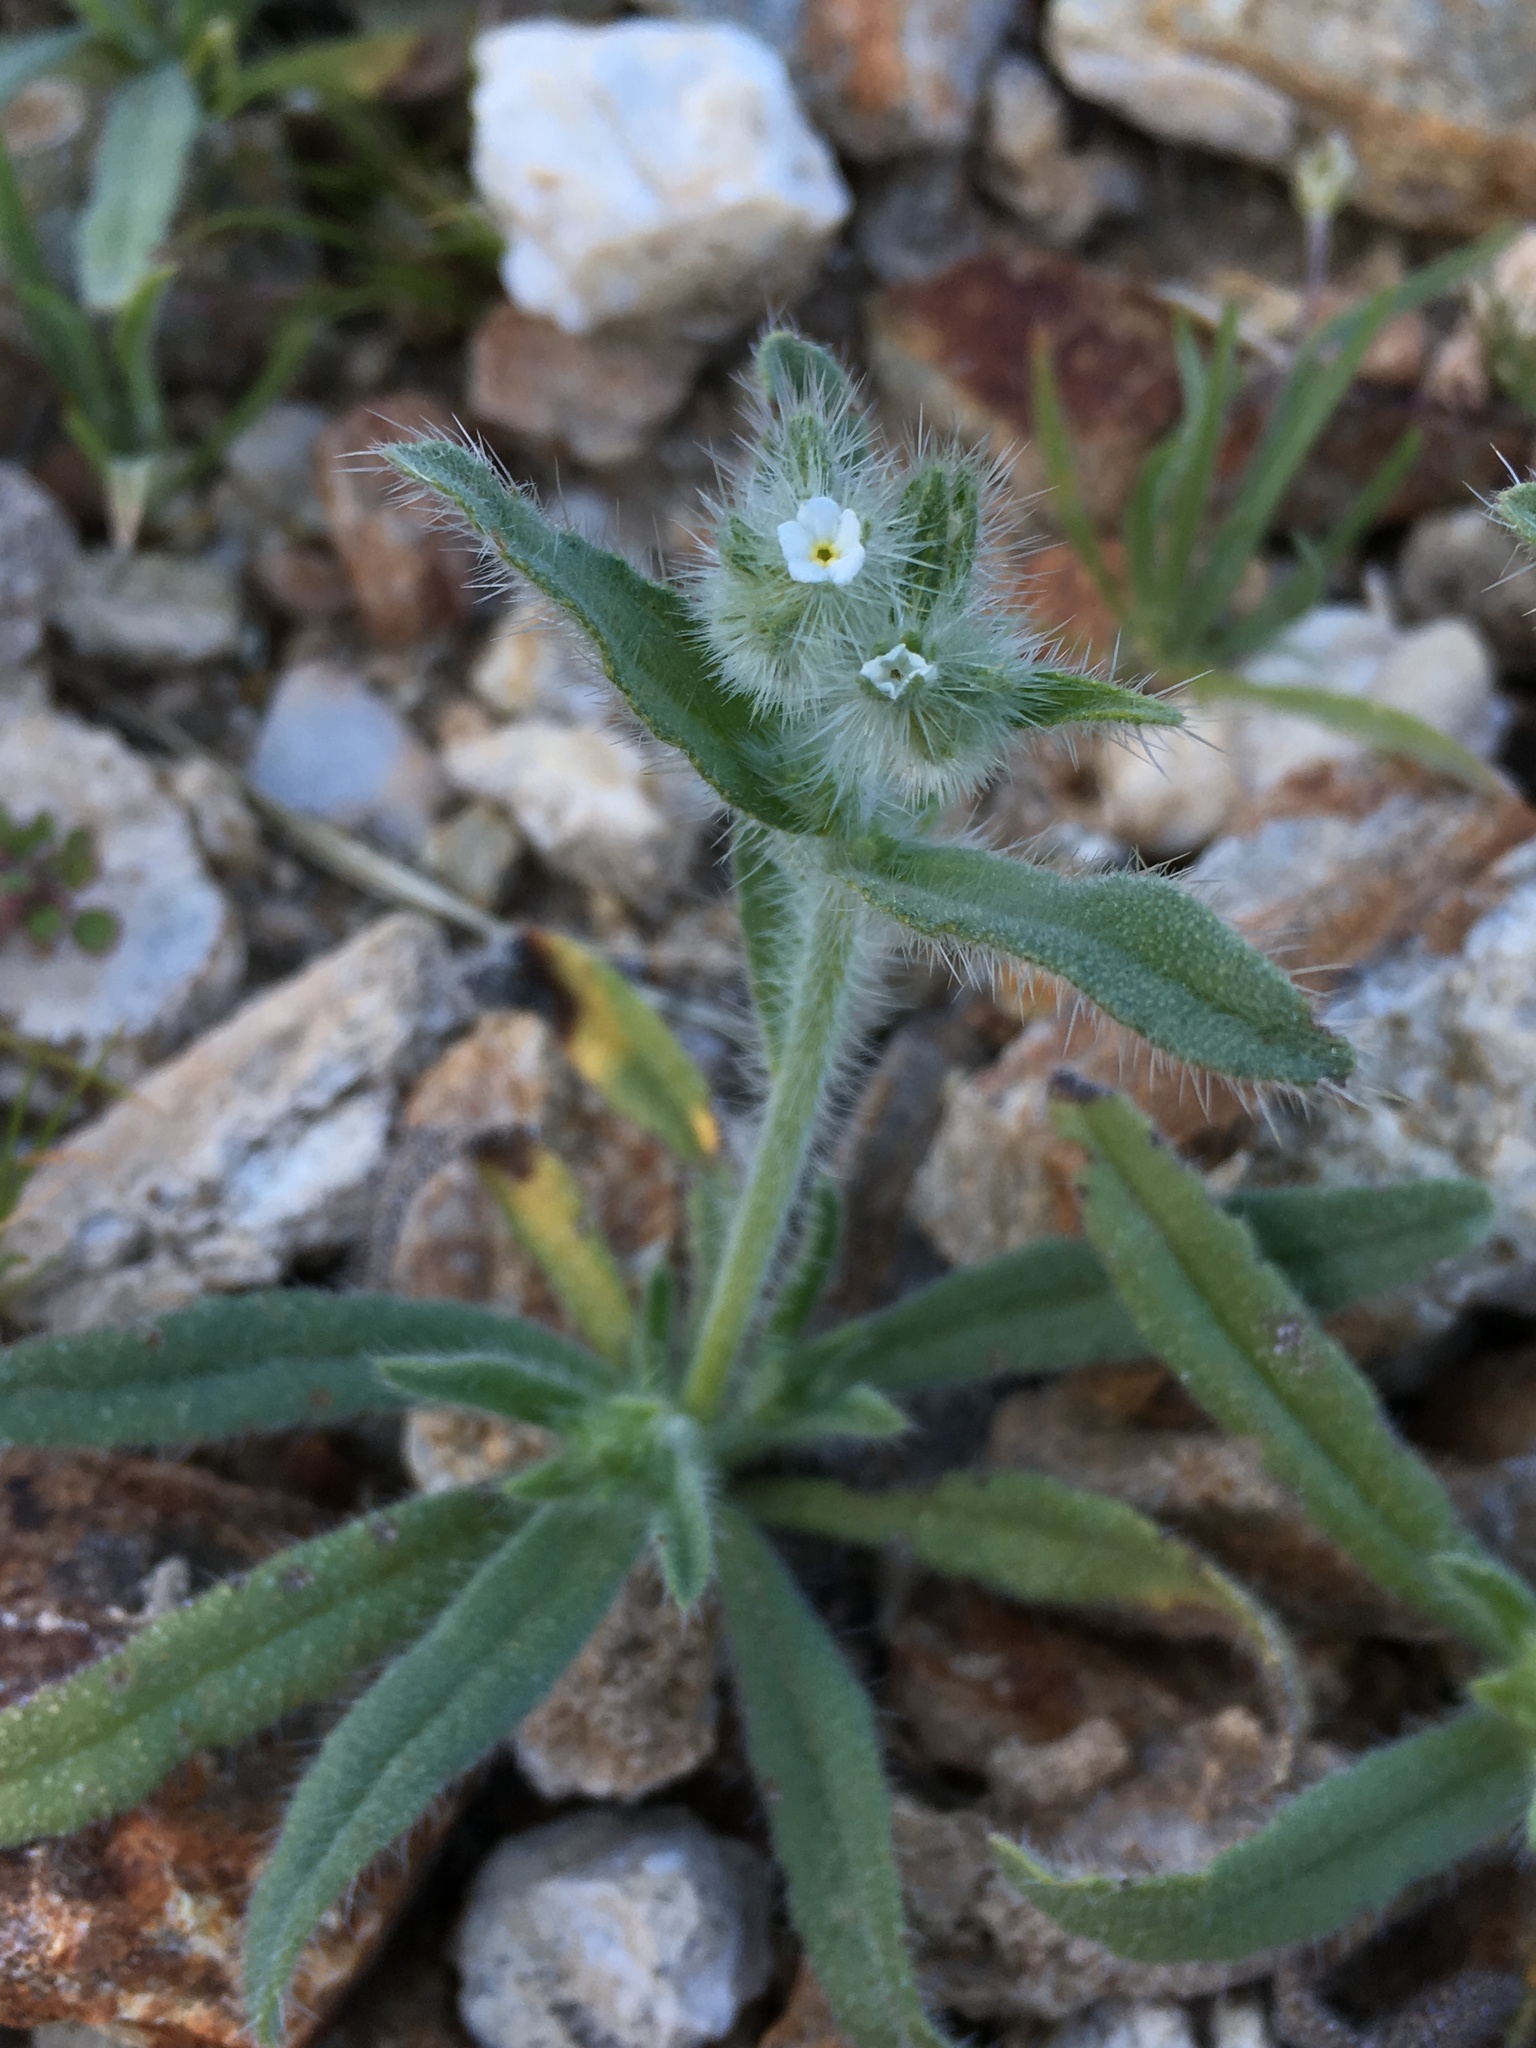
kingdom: Plantae
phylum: Tracheophyta
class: Magnoliopsida
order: Boraginales
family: Boraginaceae
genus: Simpsonanthus
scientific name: Simpsonanthus jonesii
